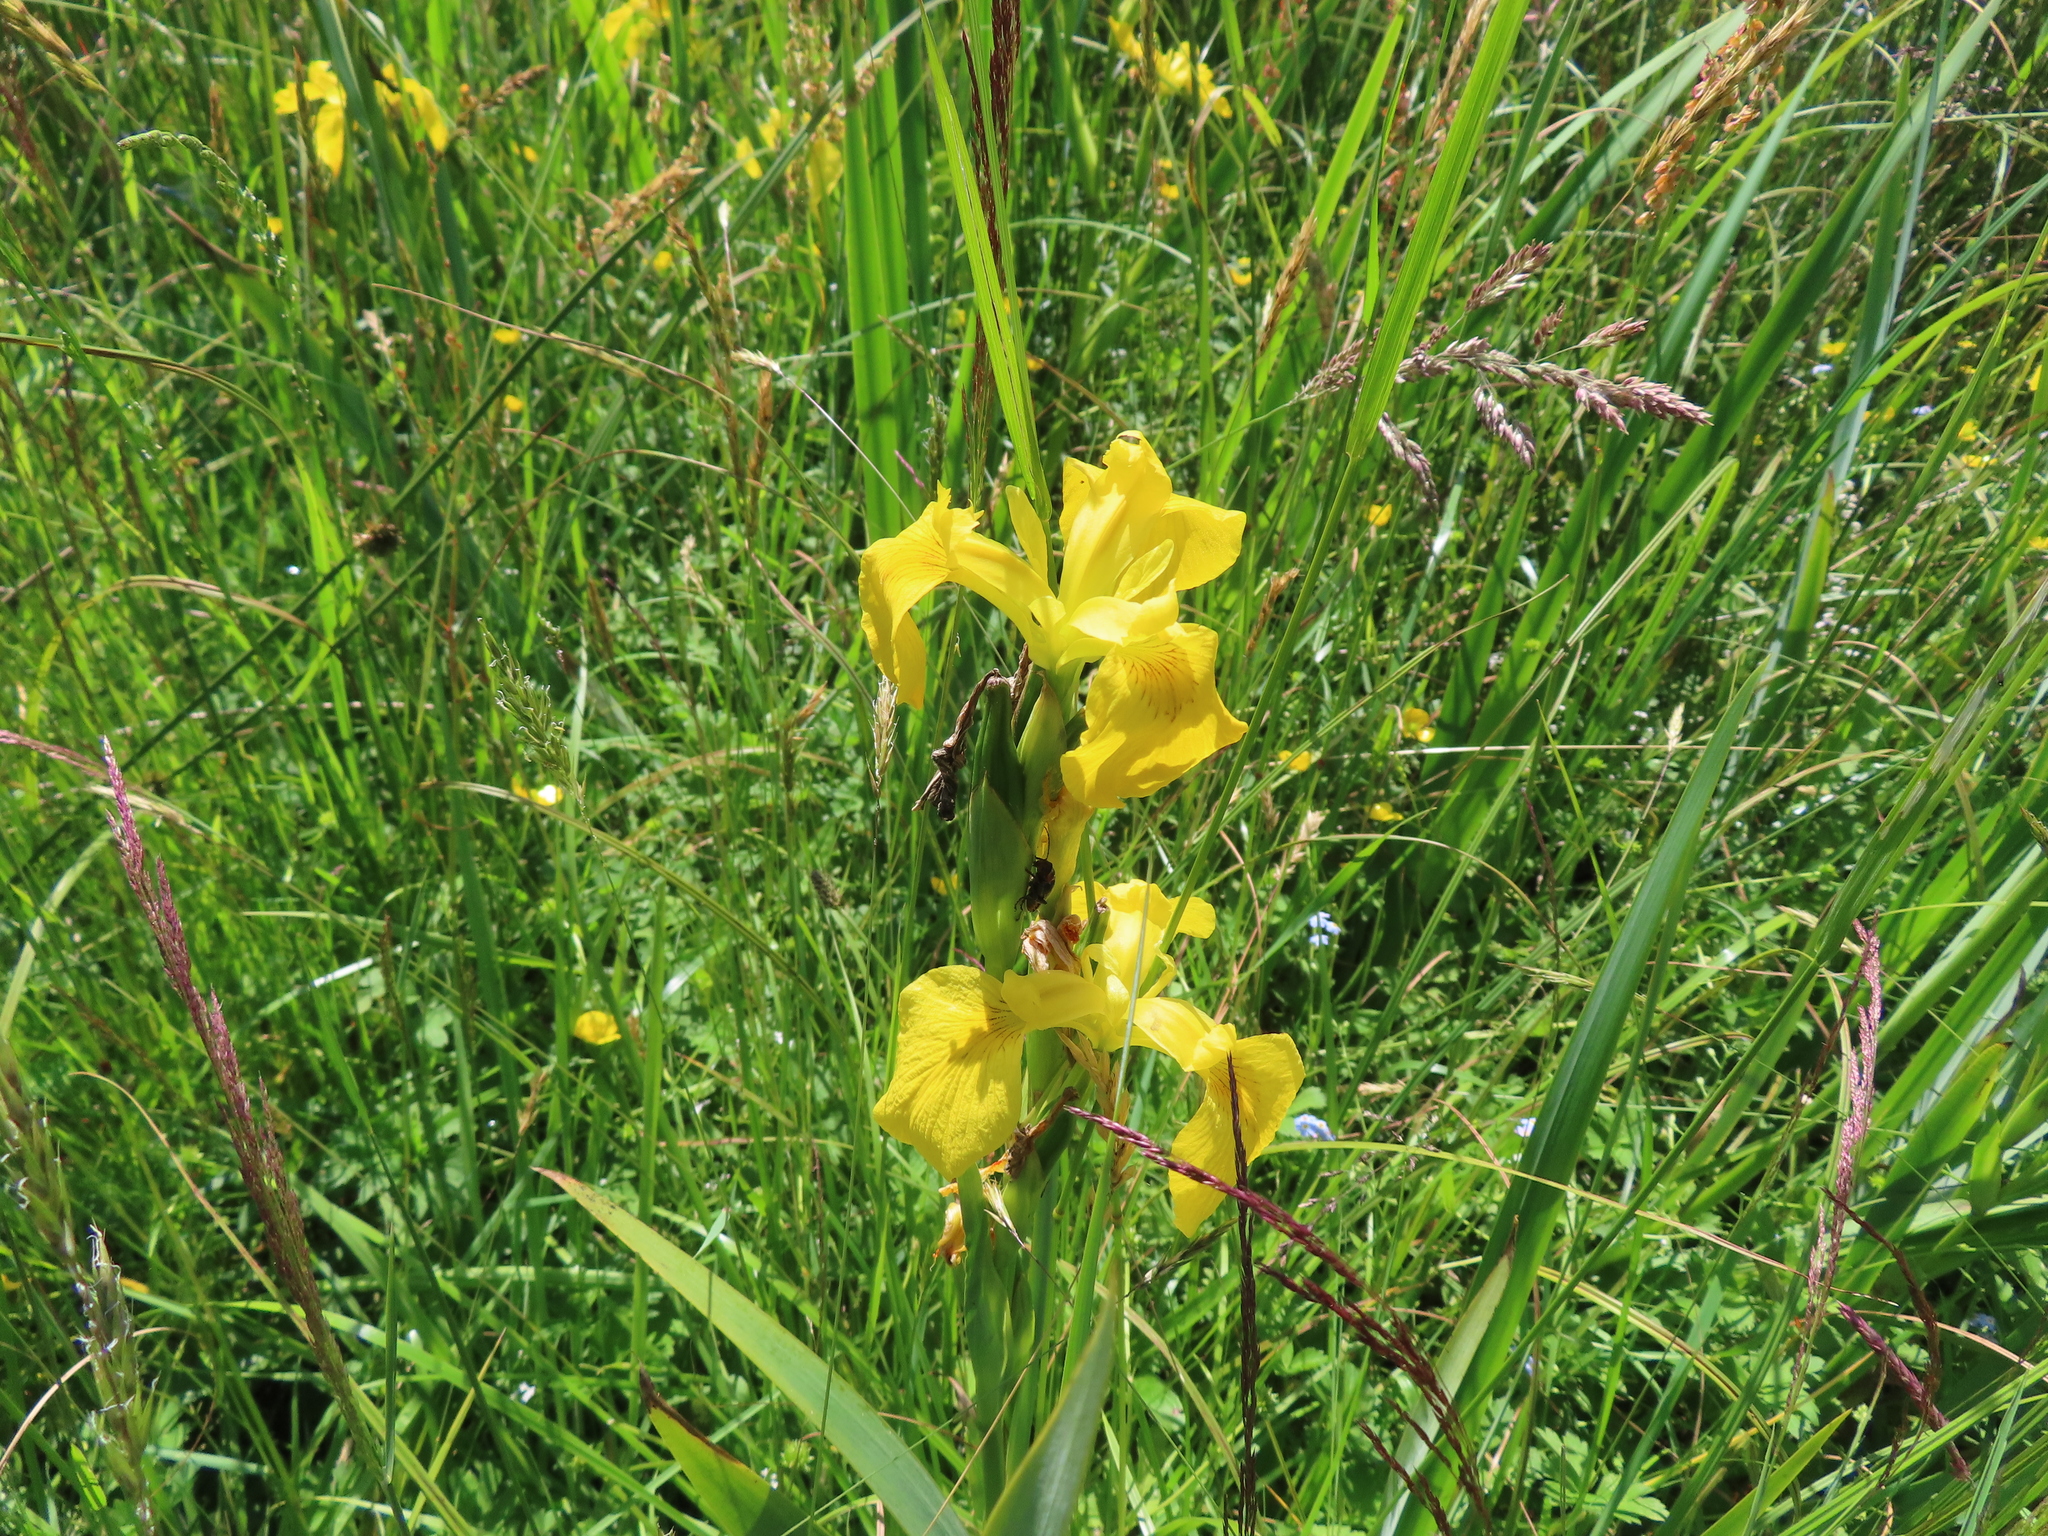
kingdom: Plantae
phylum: Tracheophyta
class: Liliopsida
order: Asparagales
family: Iridaceae
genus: Iris
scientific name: Iris pseudacorus
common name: Yellow flag
